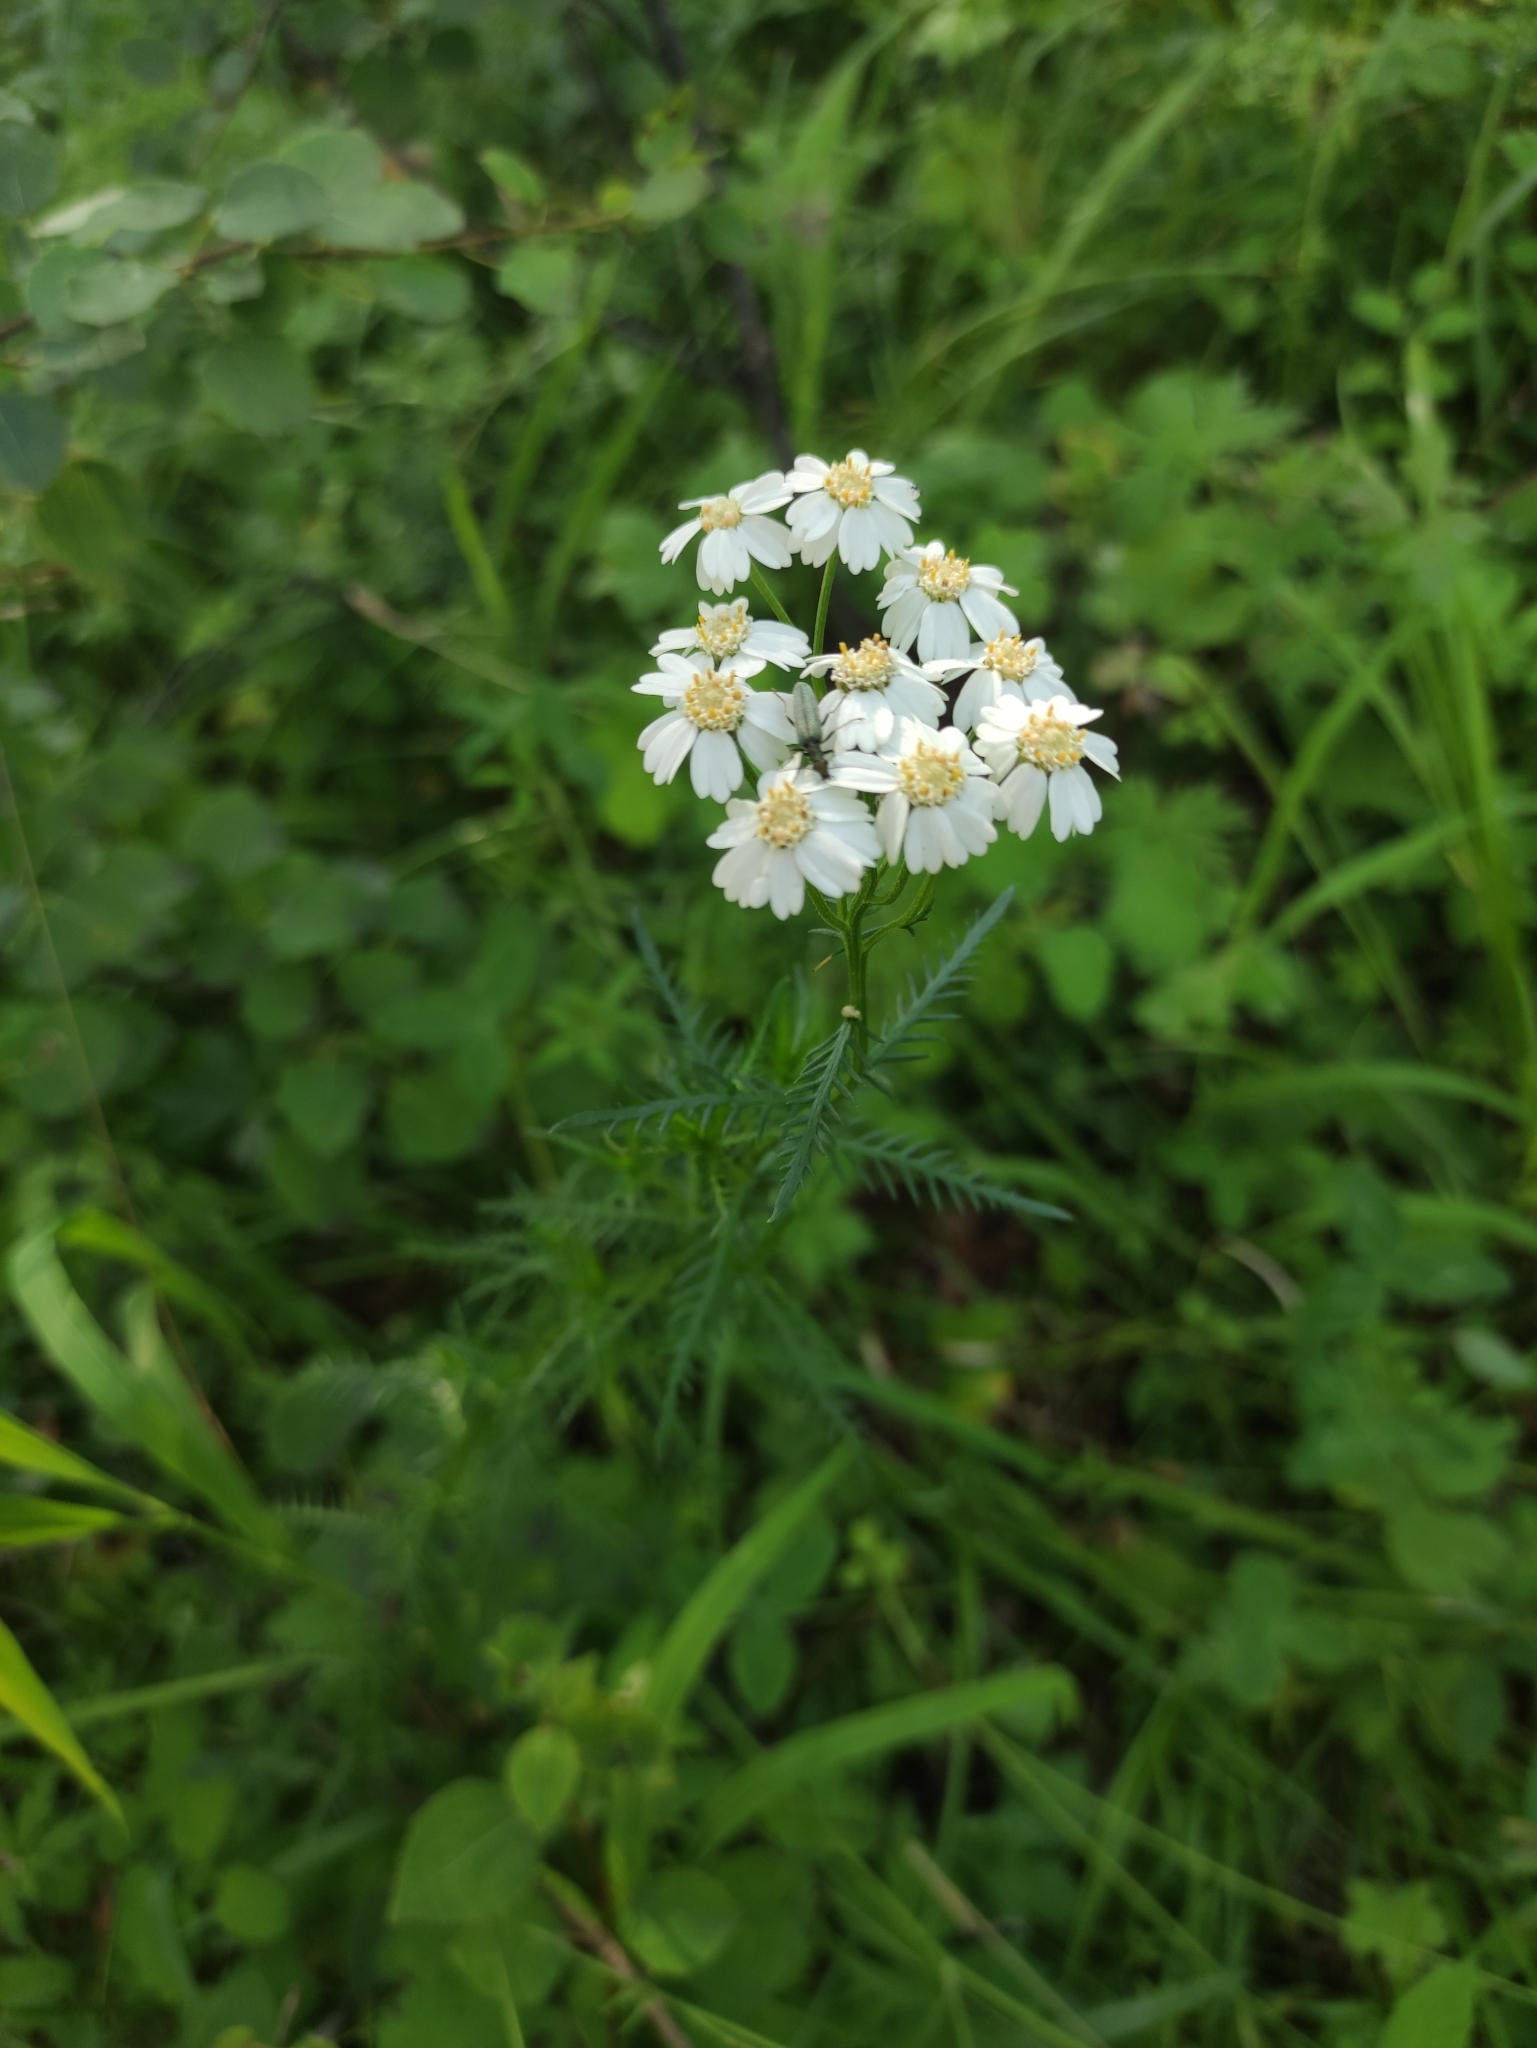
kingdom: Plantae
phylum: Tracheophyta
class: Magnoliopsida
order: Asterales
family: Asteraceae
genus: Achillea
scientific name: Achillea impatiens
